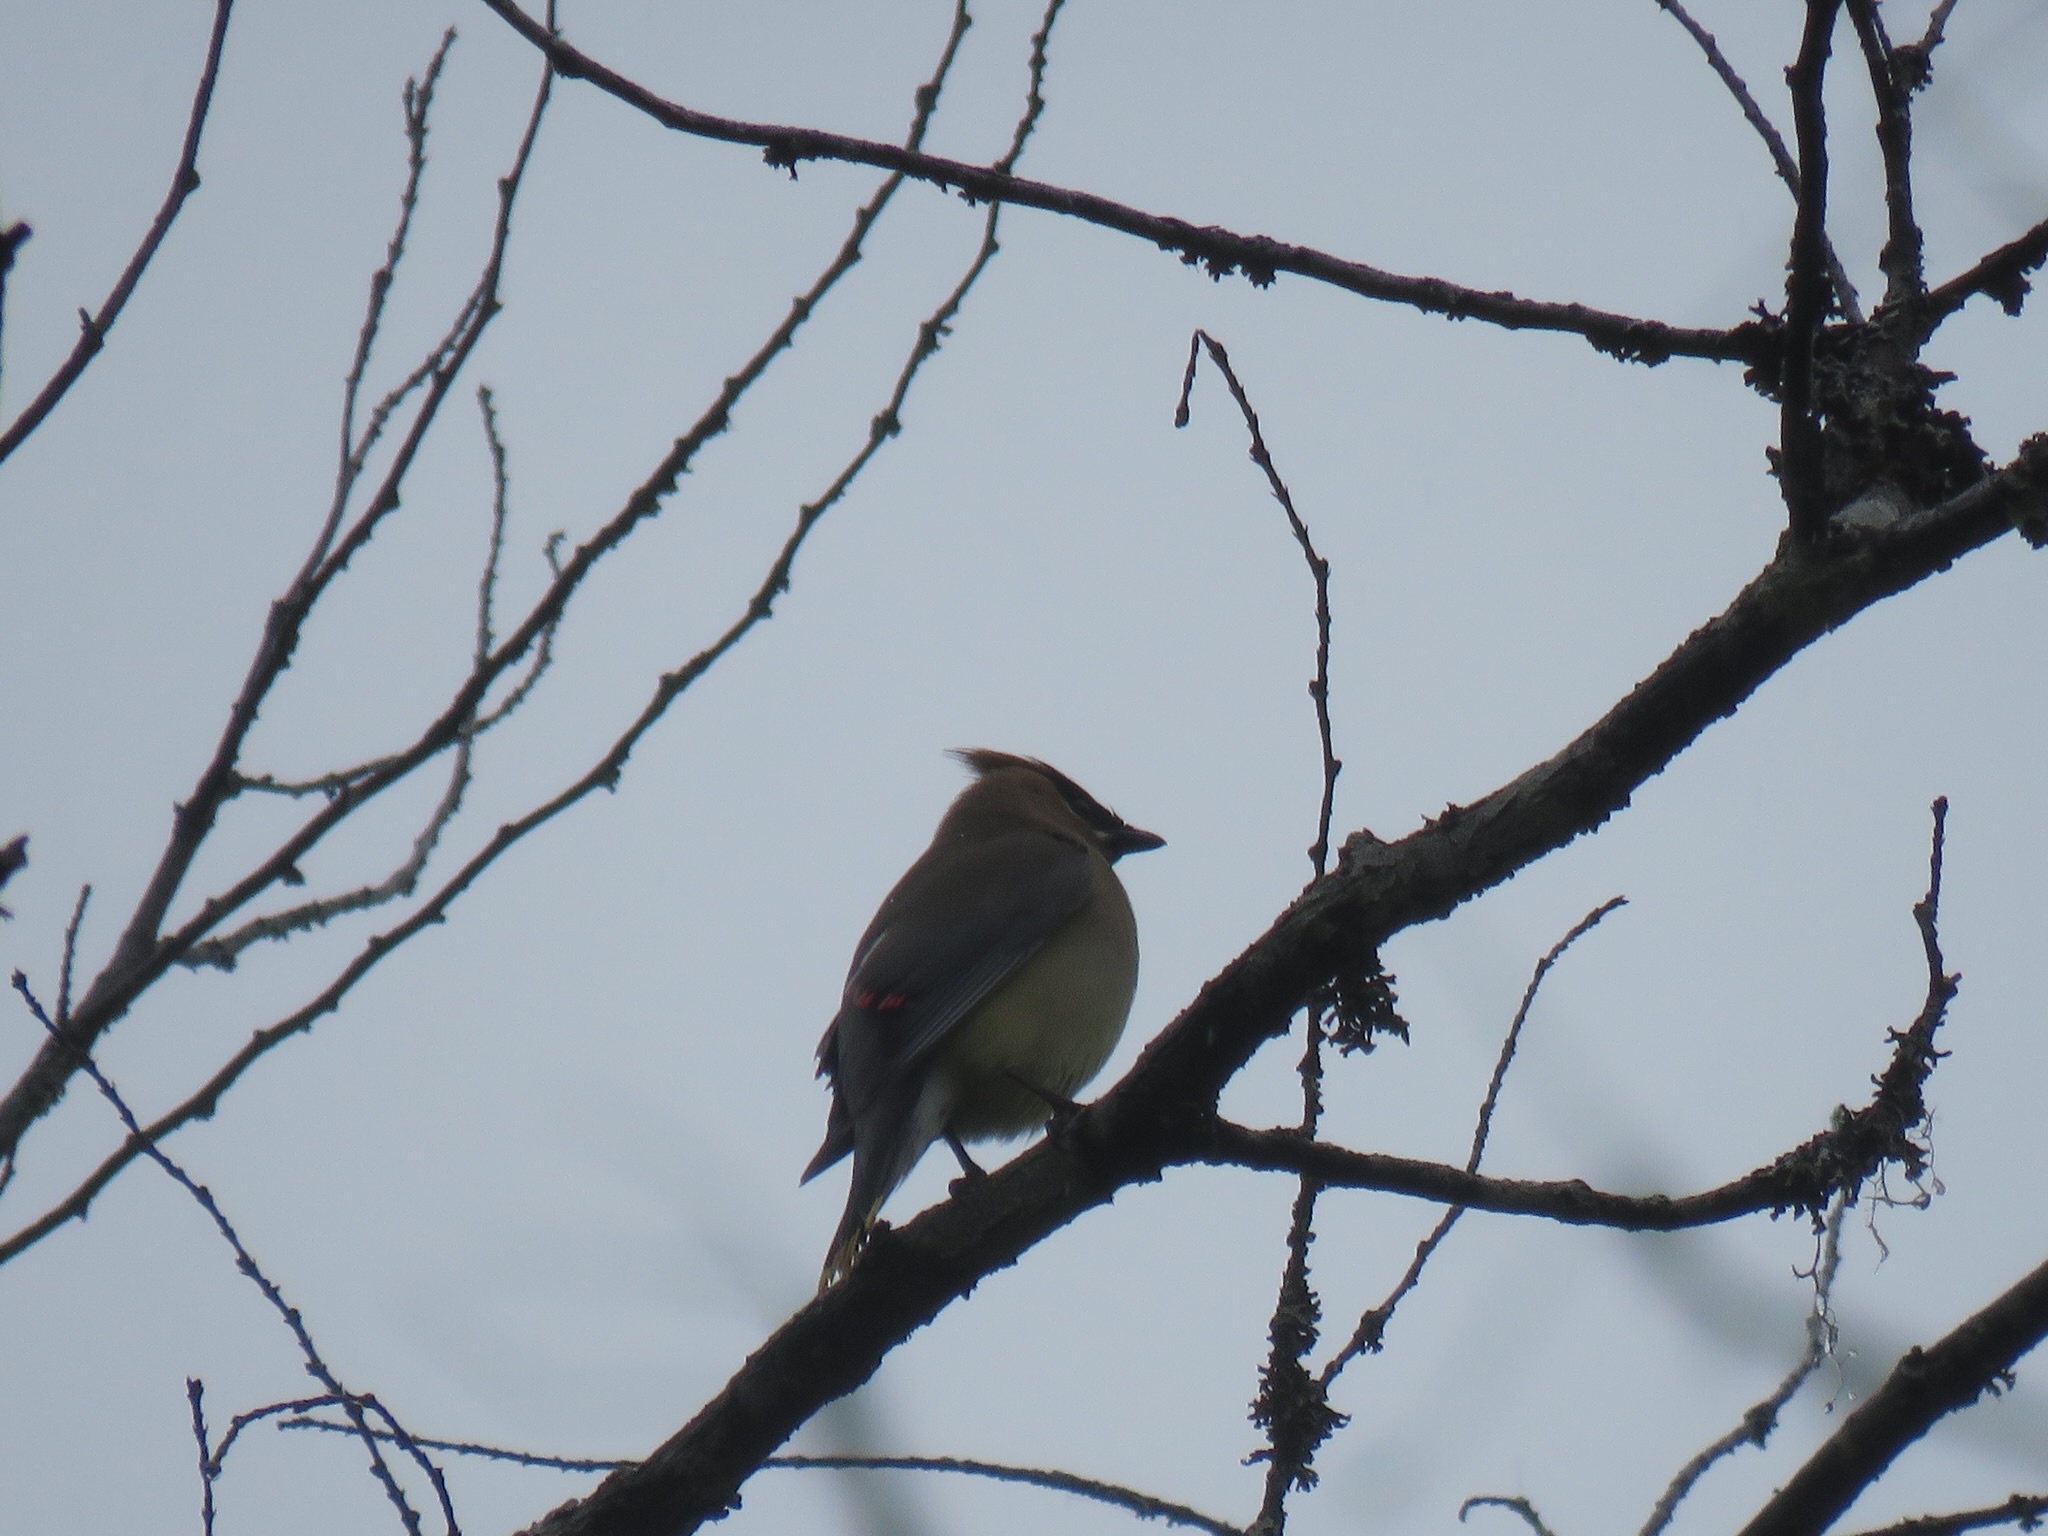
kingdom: Animalia
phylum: Chordata
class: Aves
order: Passeriformes
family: Bombycillidae
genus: Bombycilla
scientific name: Bombycilla cedrorum
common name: Cedar waxwing
